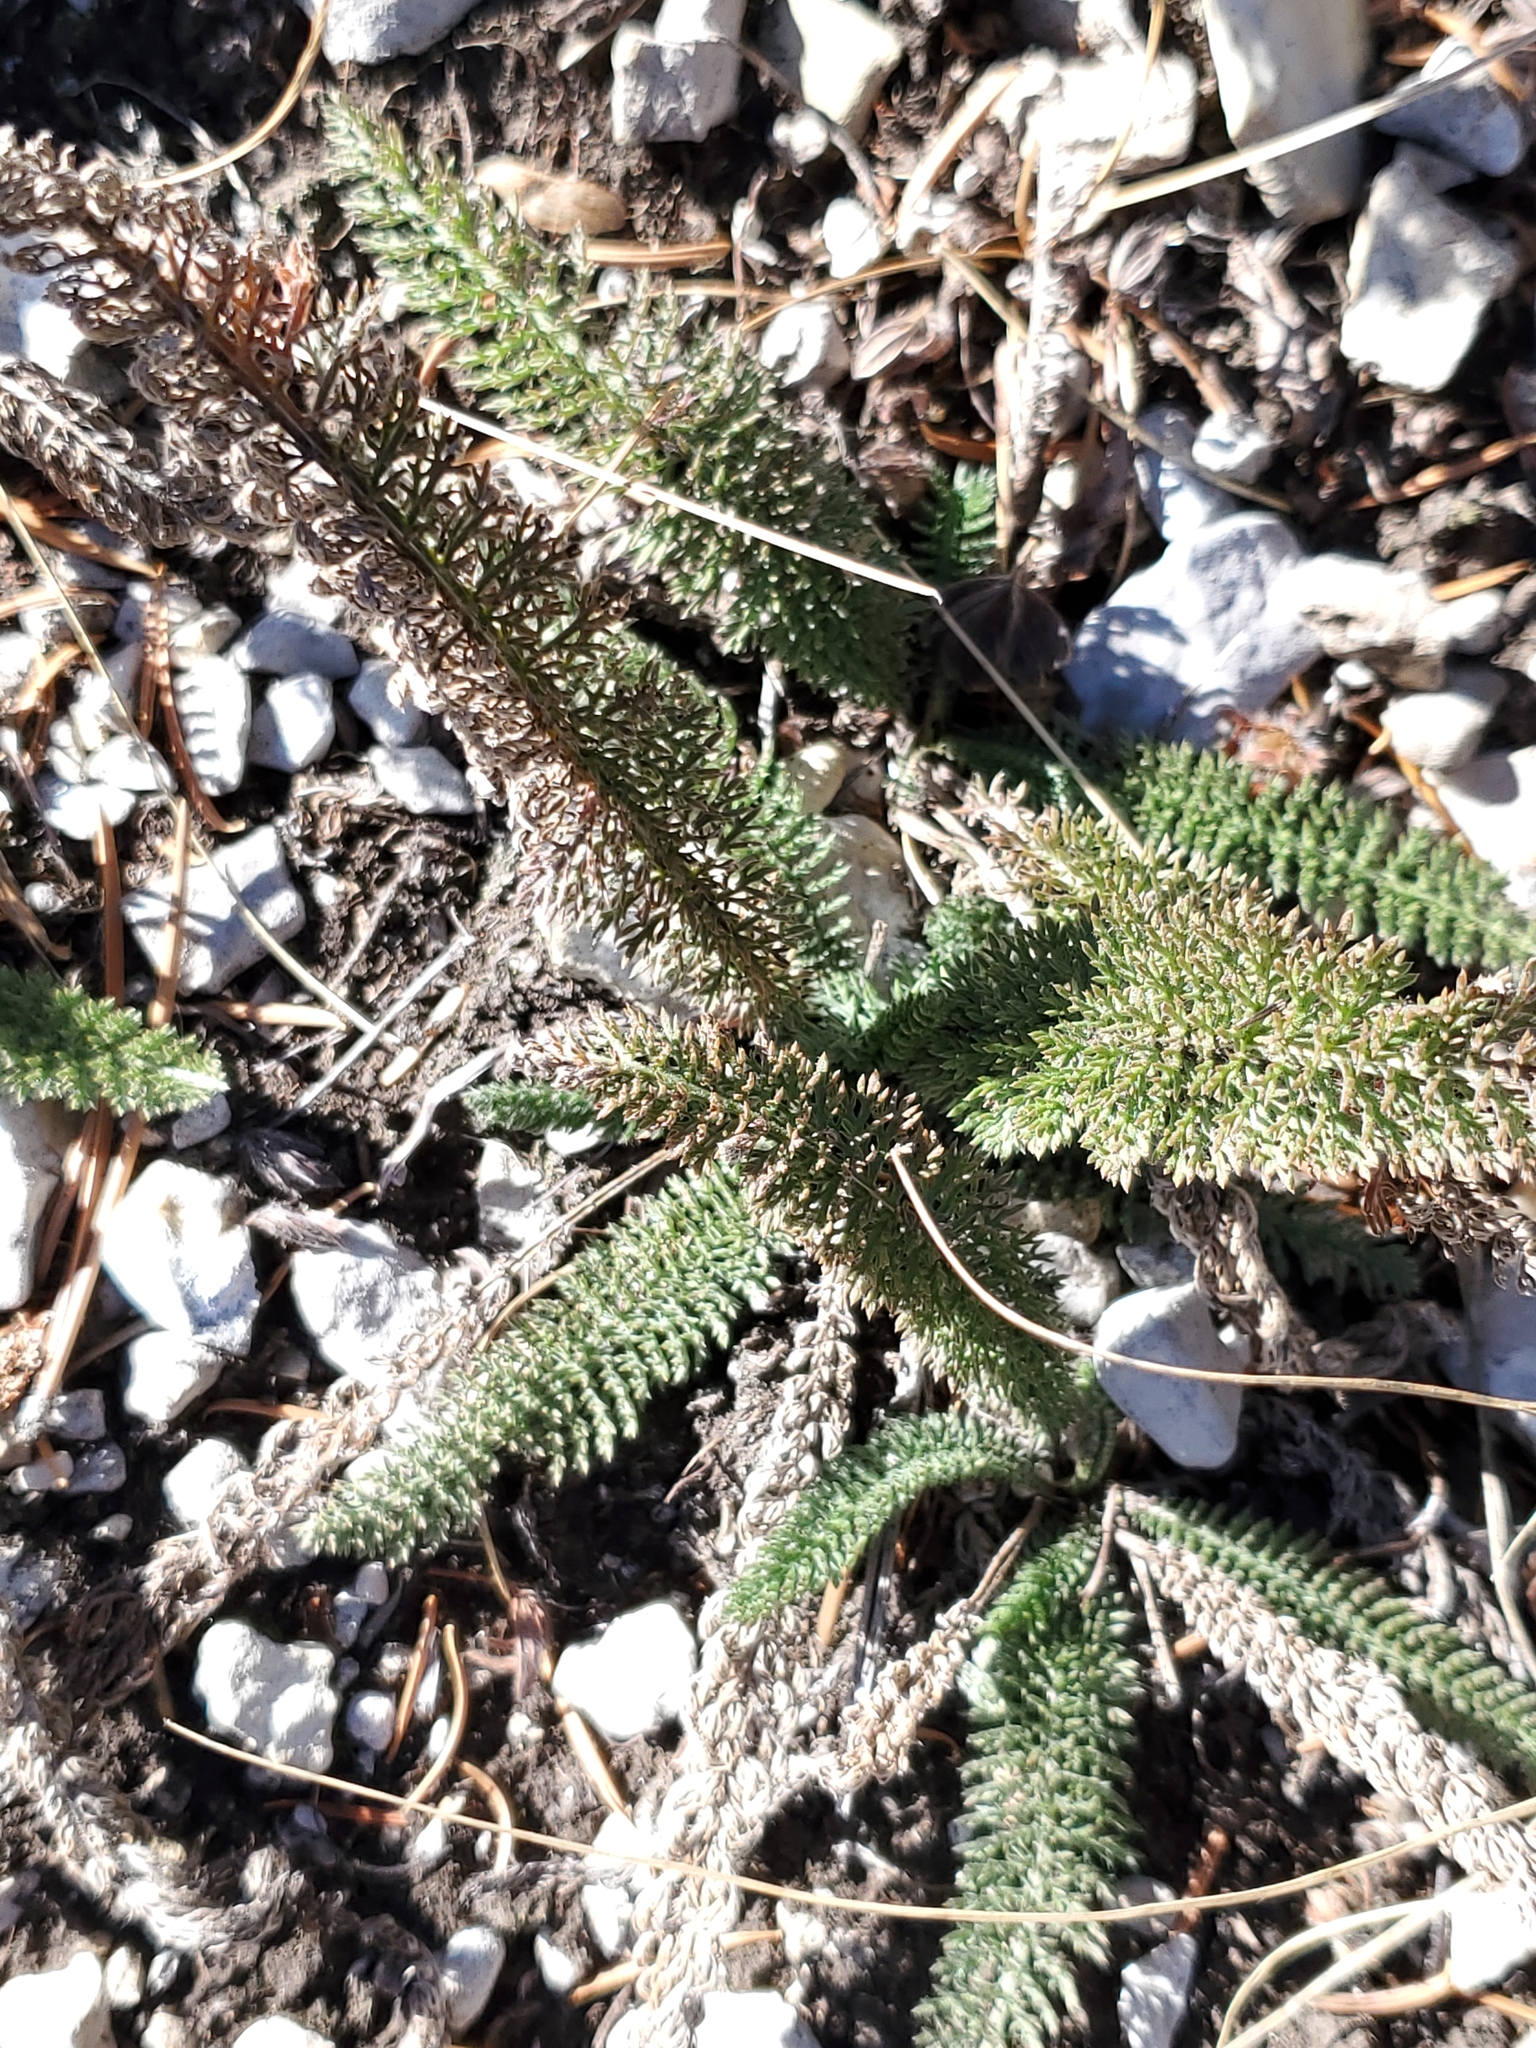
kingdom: Plantae
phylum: Tracheophyta
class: Magnoliopsida
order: Asterales
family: Asteraceae
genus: Achillea
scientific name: Achillea millefolium
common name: Yarrow
